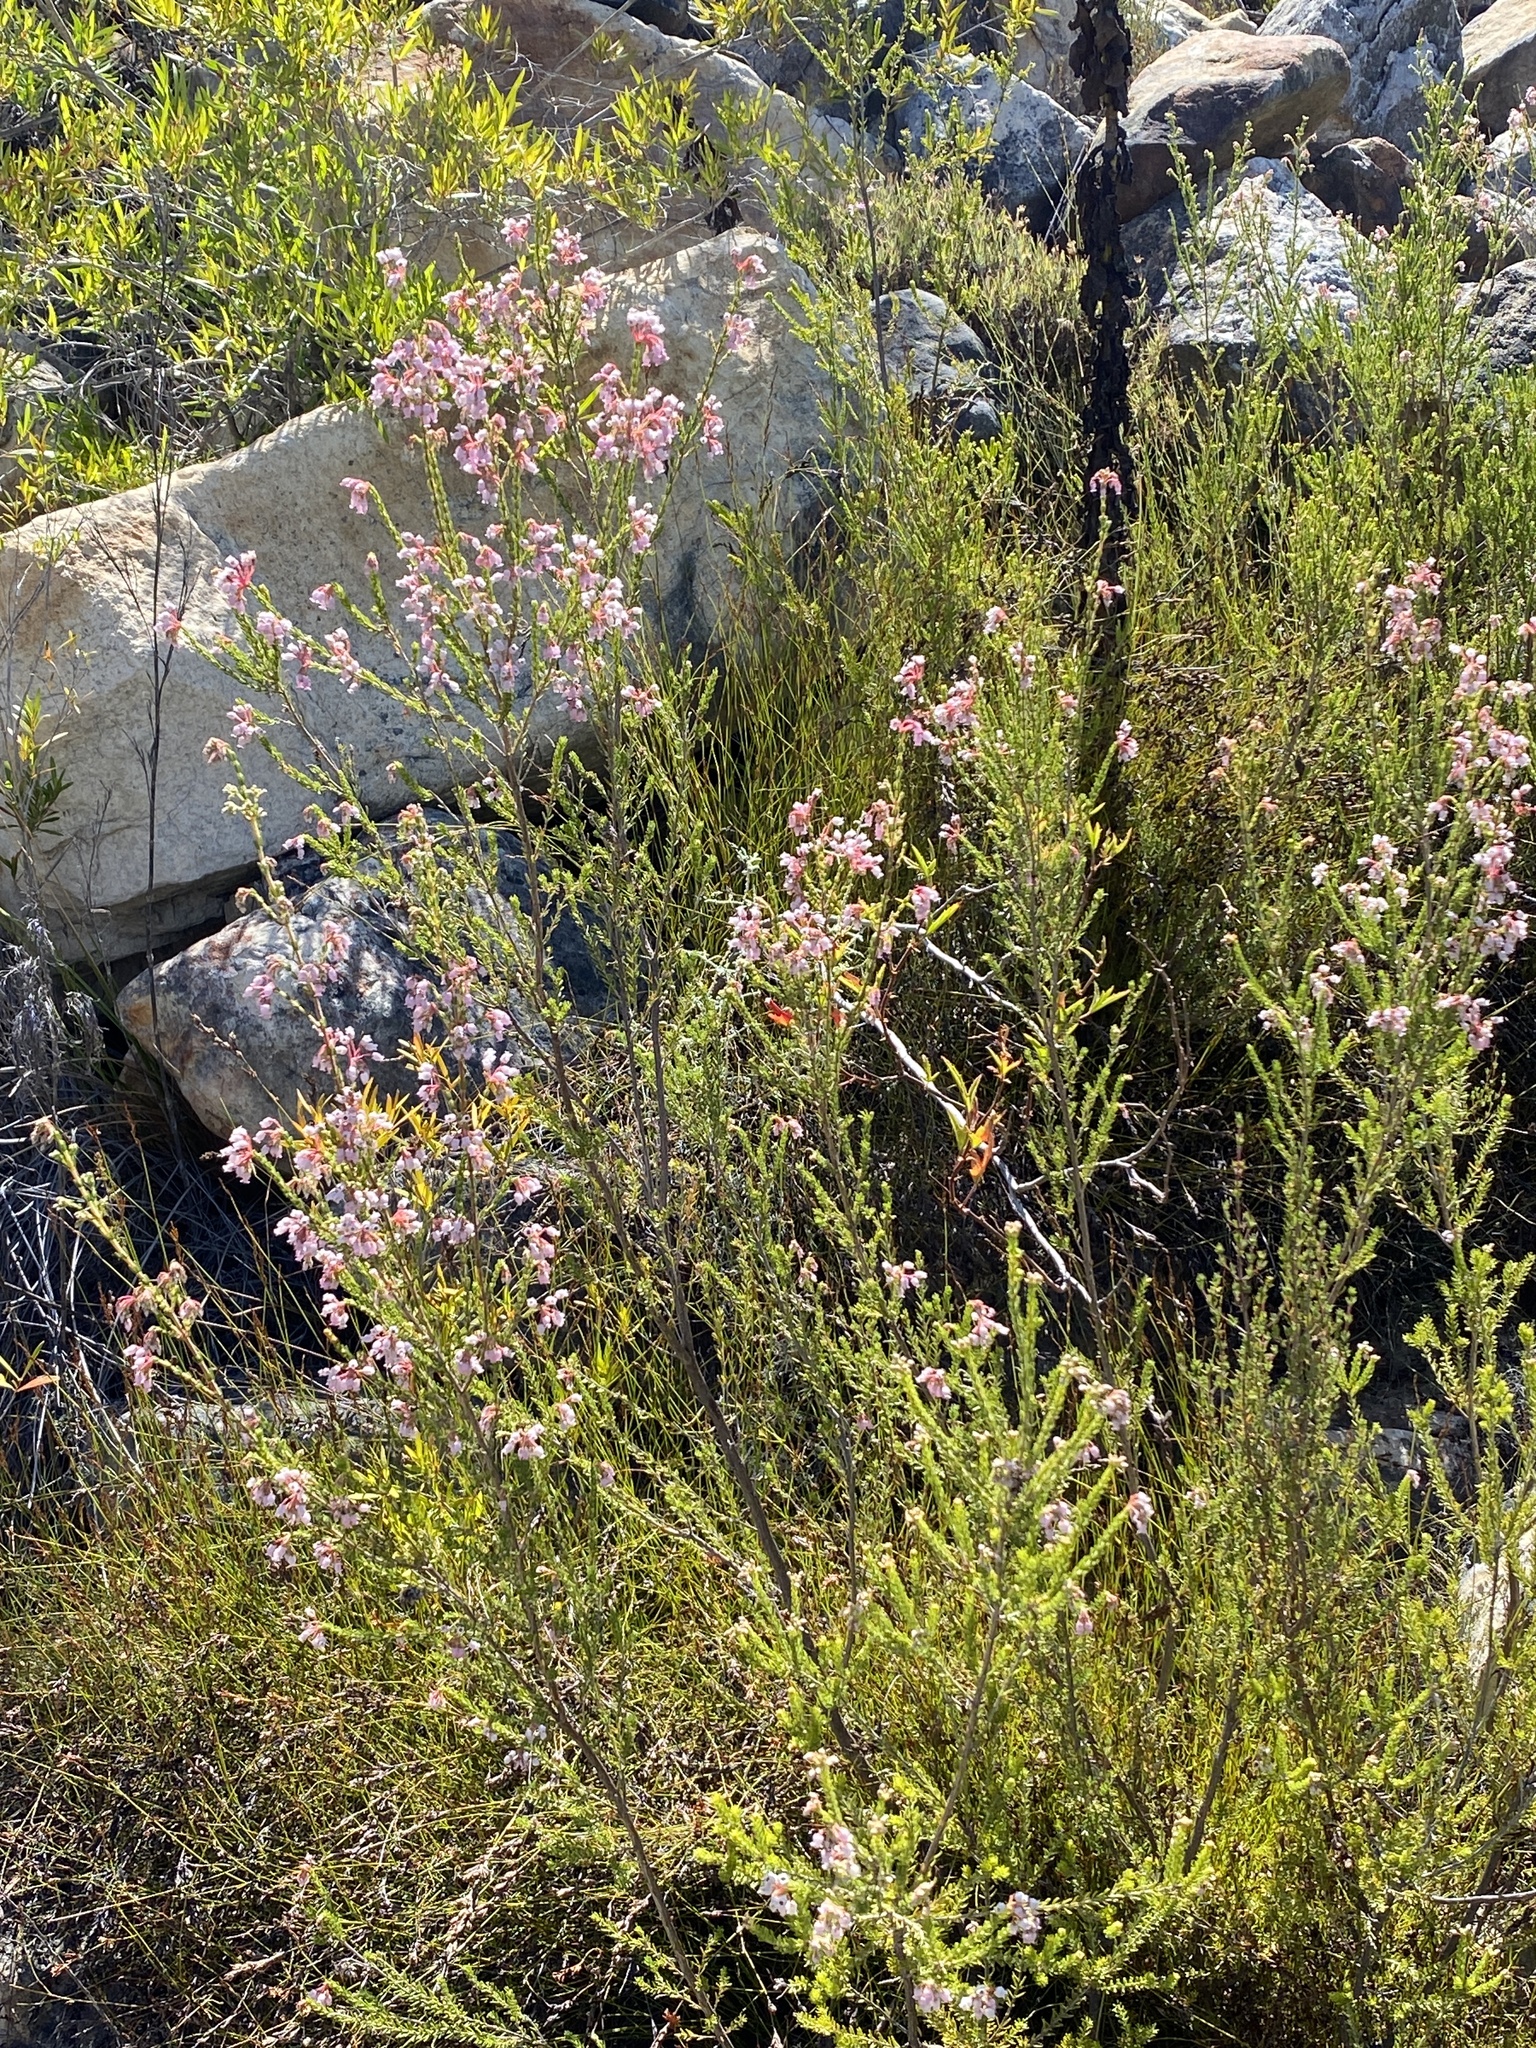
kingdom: Plantae
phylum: Tracheophyta
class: Magnoliopsida
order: Ericales
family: Ericaceae
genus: Erica
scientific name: Erica verecunda
